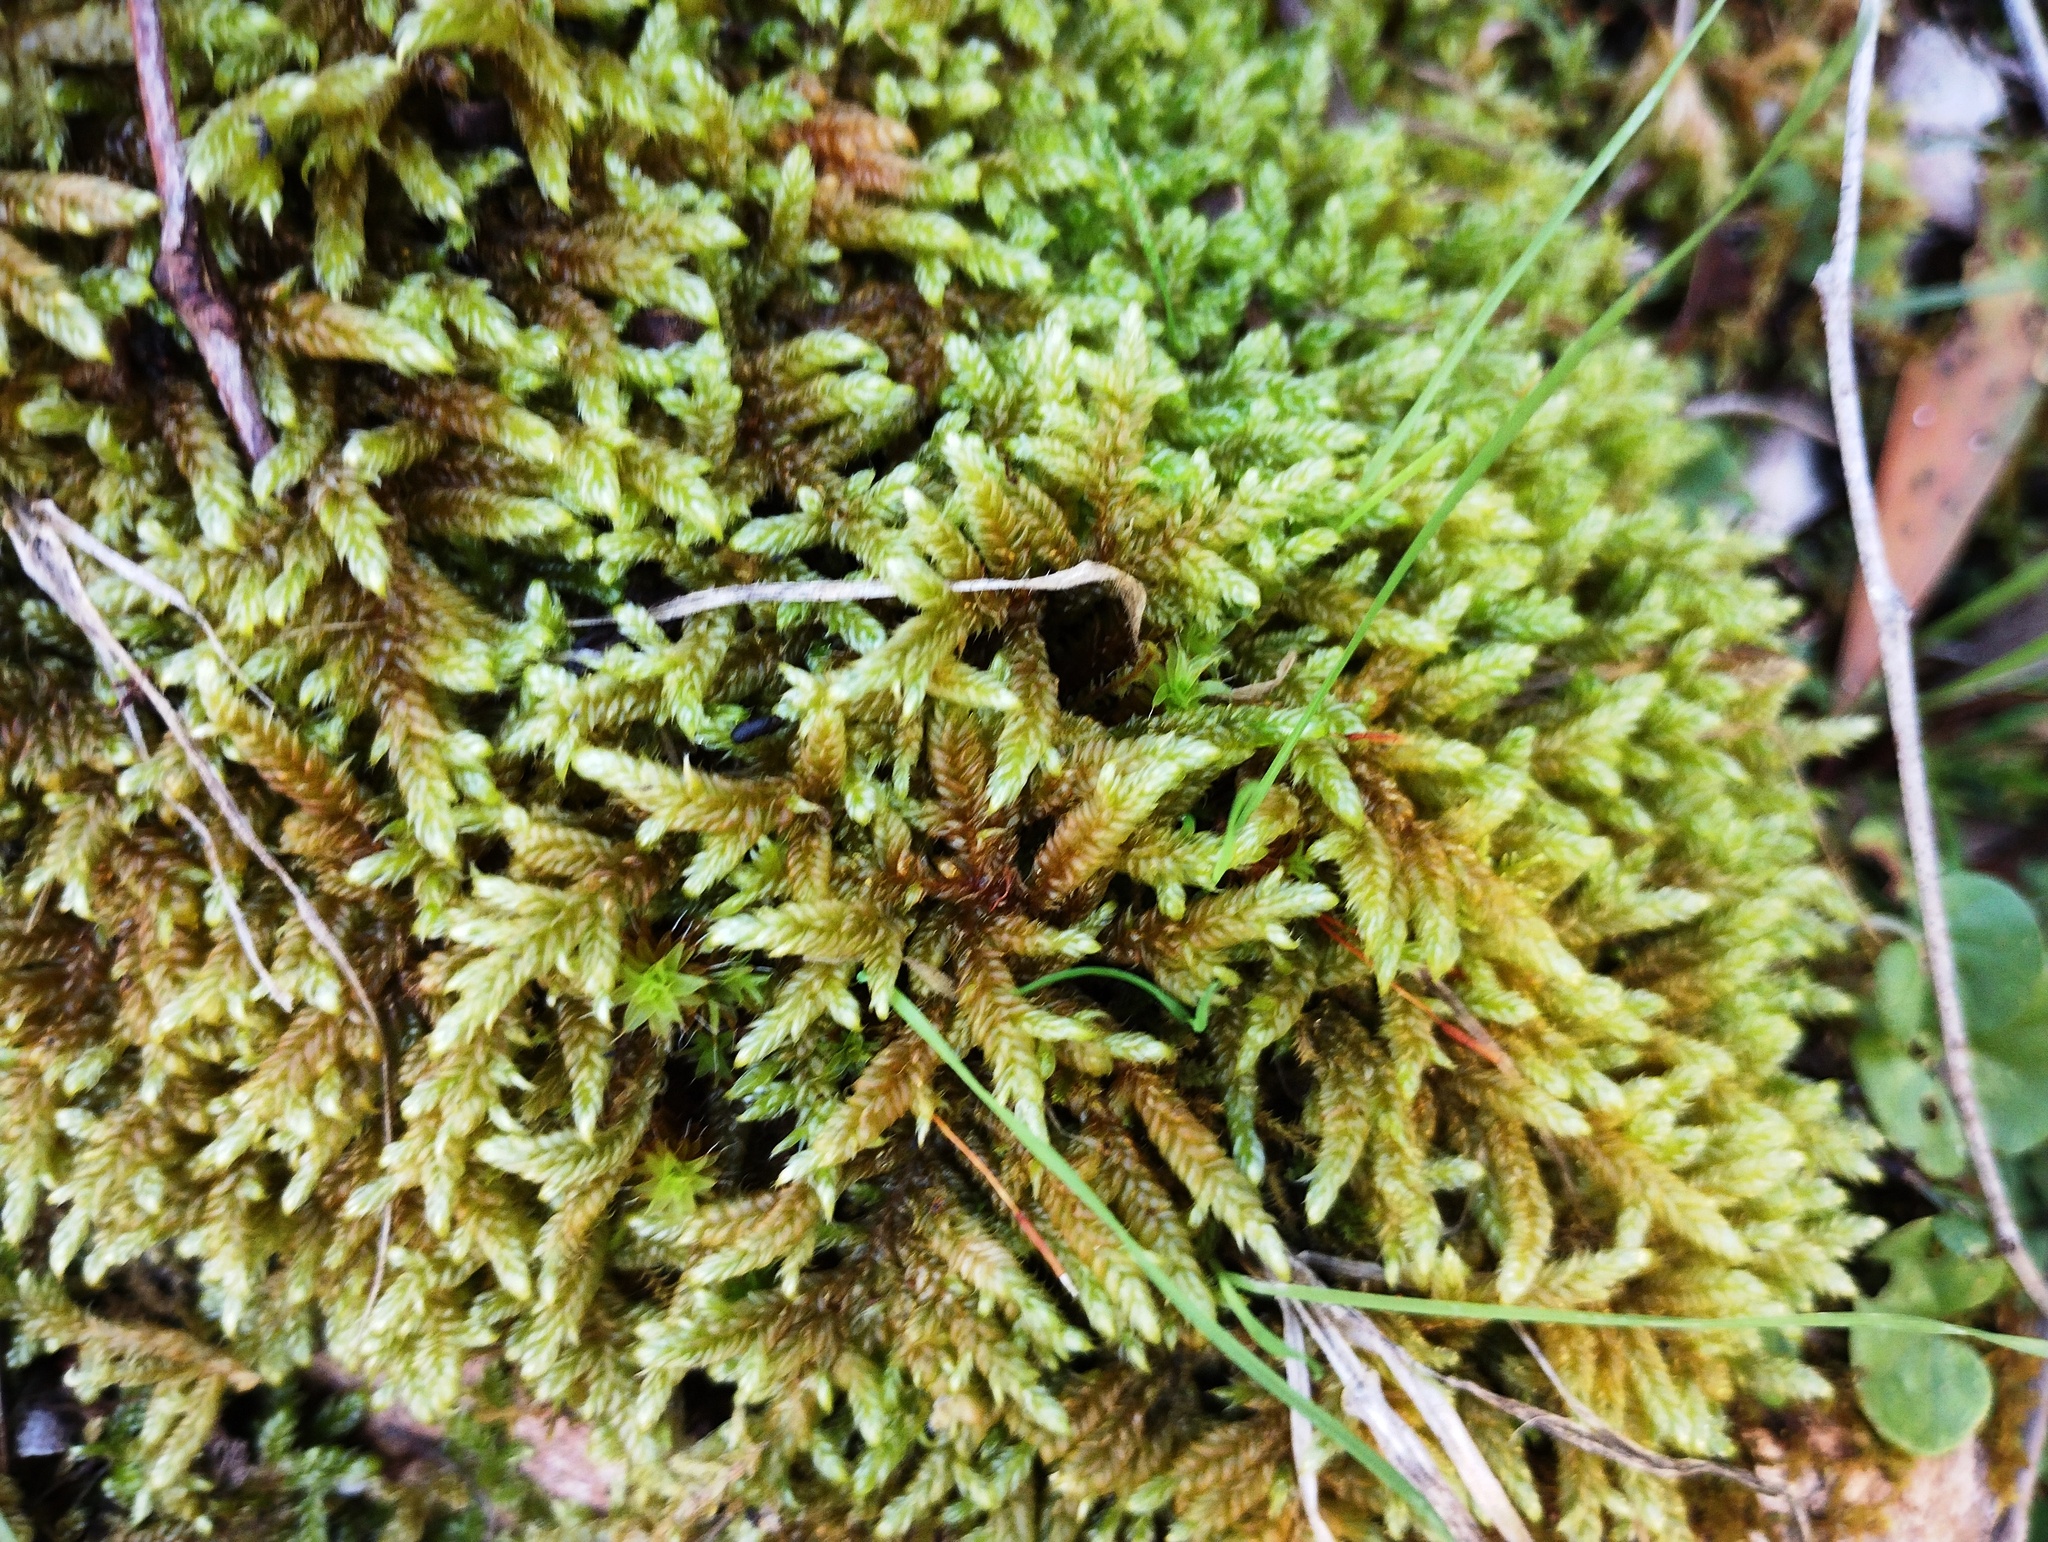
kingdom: Plantae
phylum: Bryophyta
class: Bryopsida
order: Hypnales
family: Hypnaceae
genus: Hypnum
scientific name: Hypnum cupressiforme
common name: Cypress-leaved plait-moss
